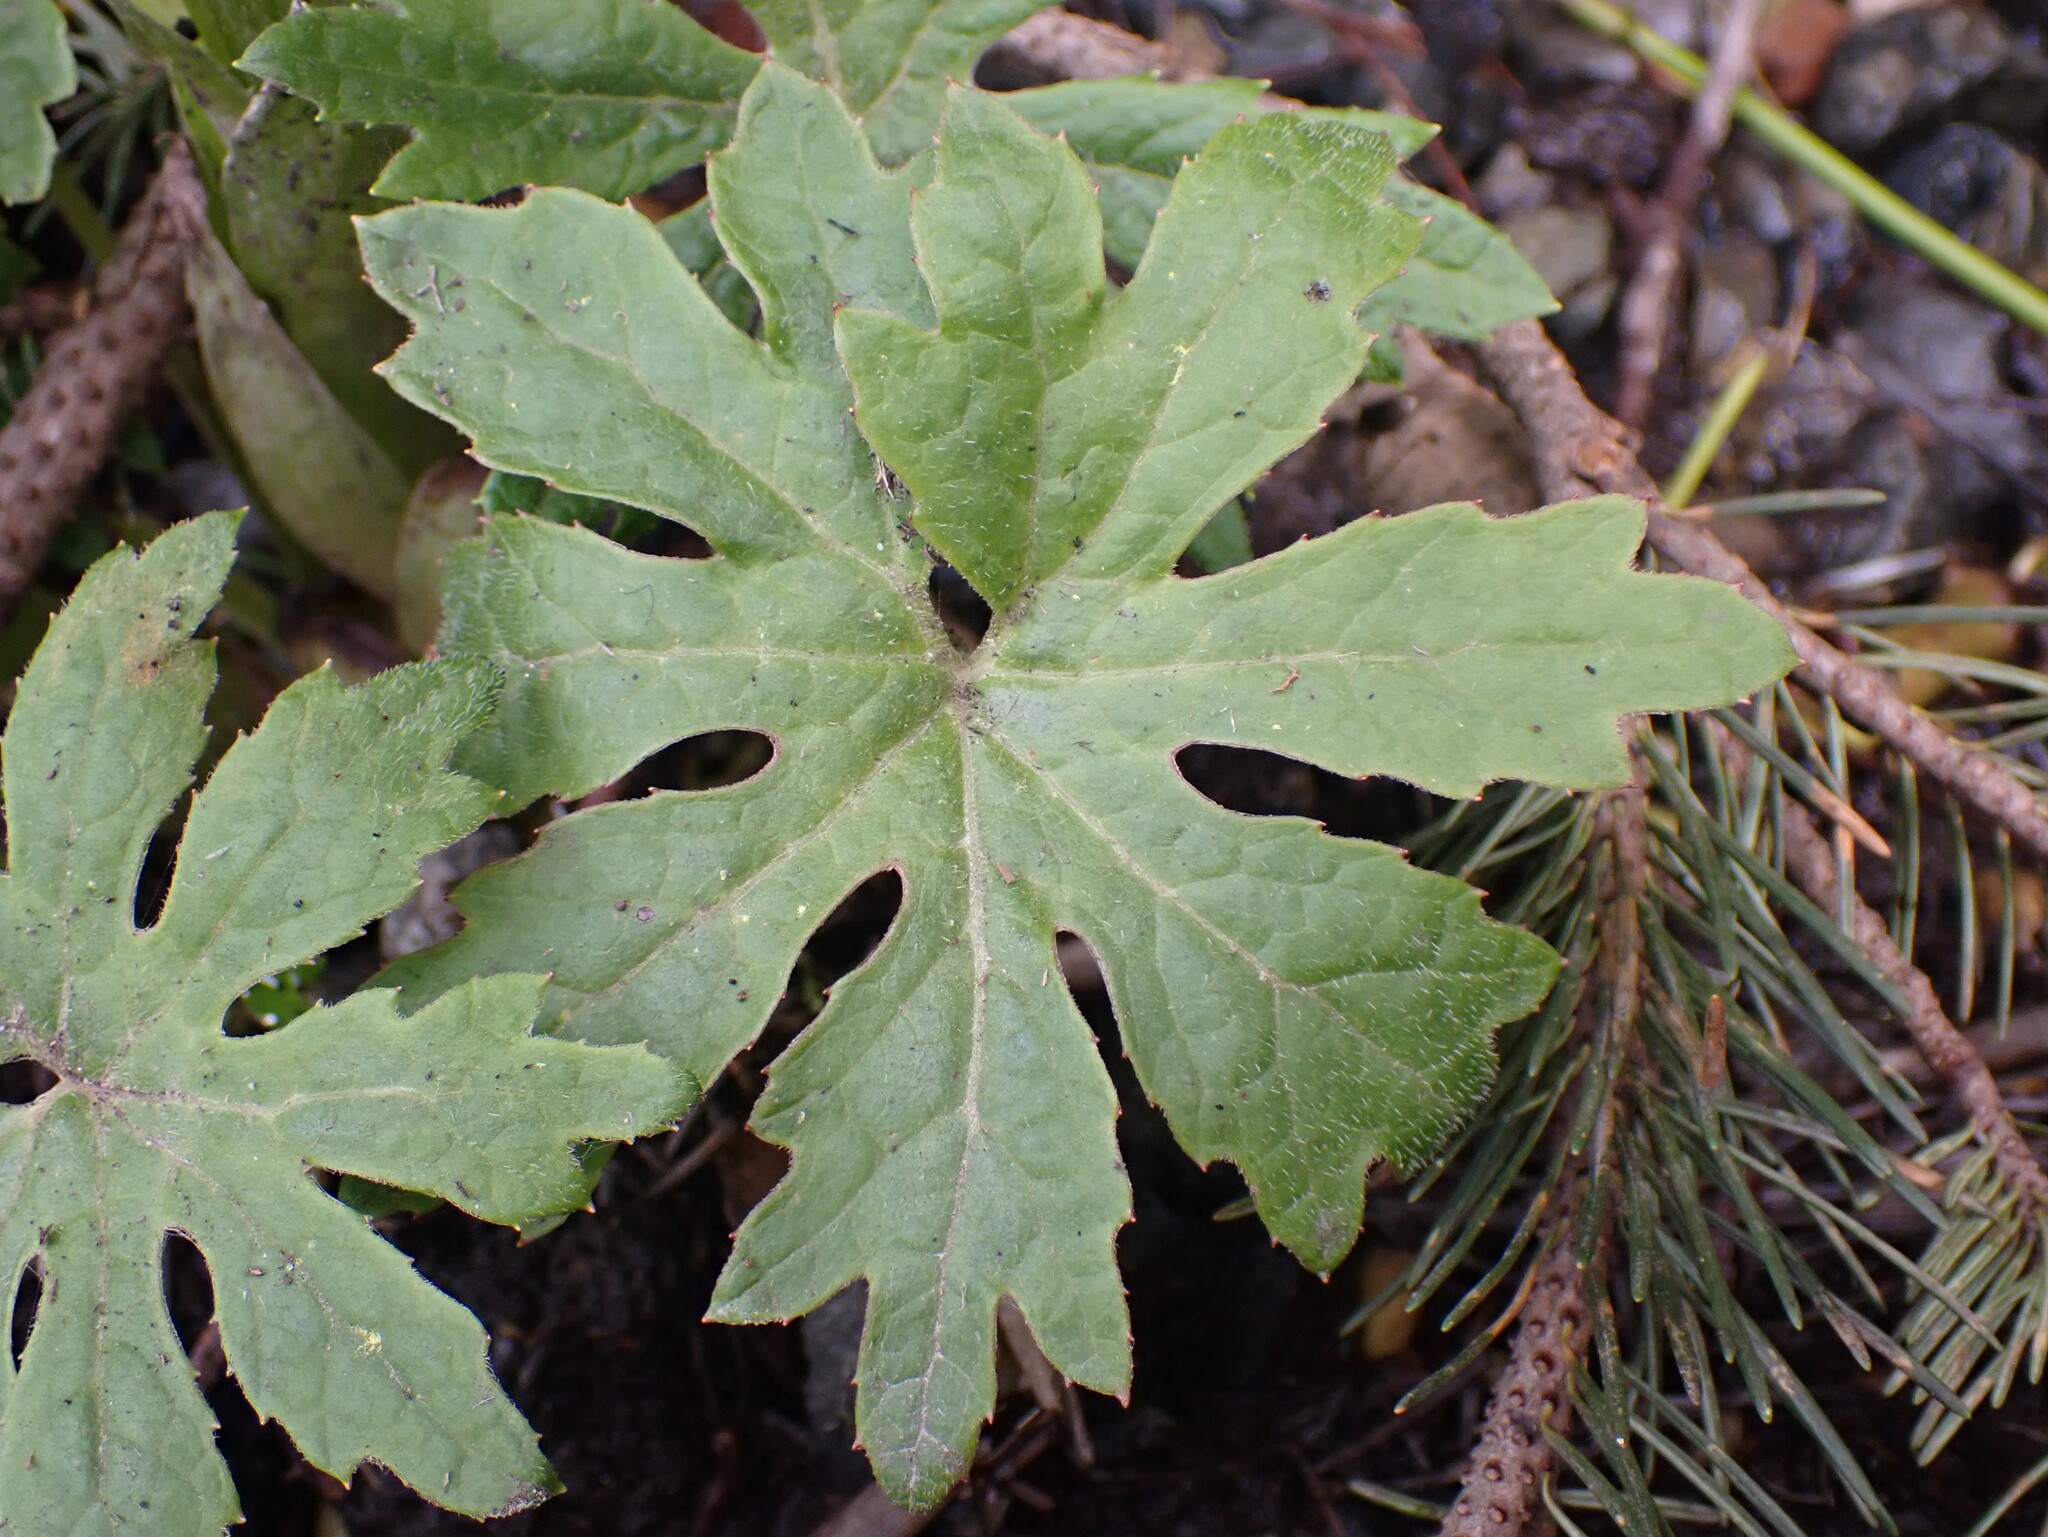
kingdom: Plantae
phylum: Tracheophyta
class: Magnoliopsida
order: Asterales
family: Asteraceae
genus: Petasites
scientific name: Petasites frigidus
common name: Arctic butterbur
